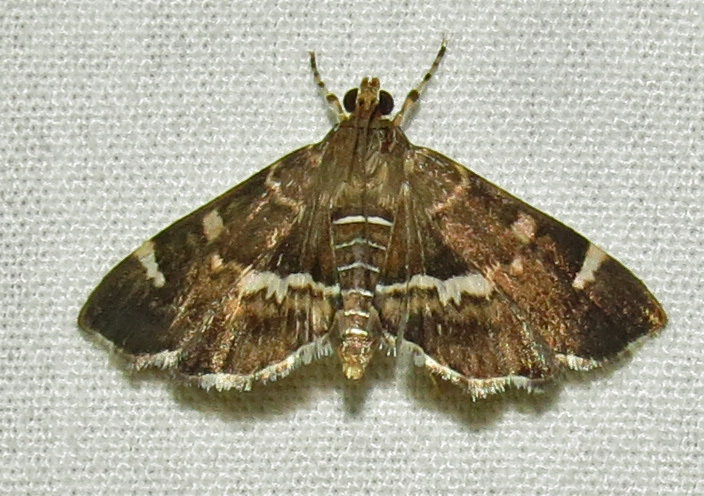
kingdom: Animalia
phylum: Arthropoda
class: Insecta
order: Lepidoptera
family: Crambidae
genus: Hymenia
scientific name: Hymenia perspectalis
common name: Spotted beet webworm
